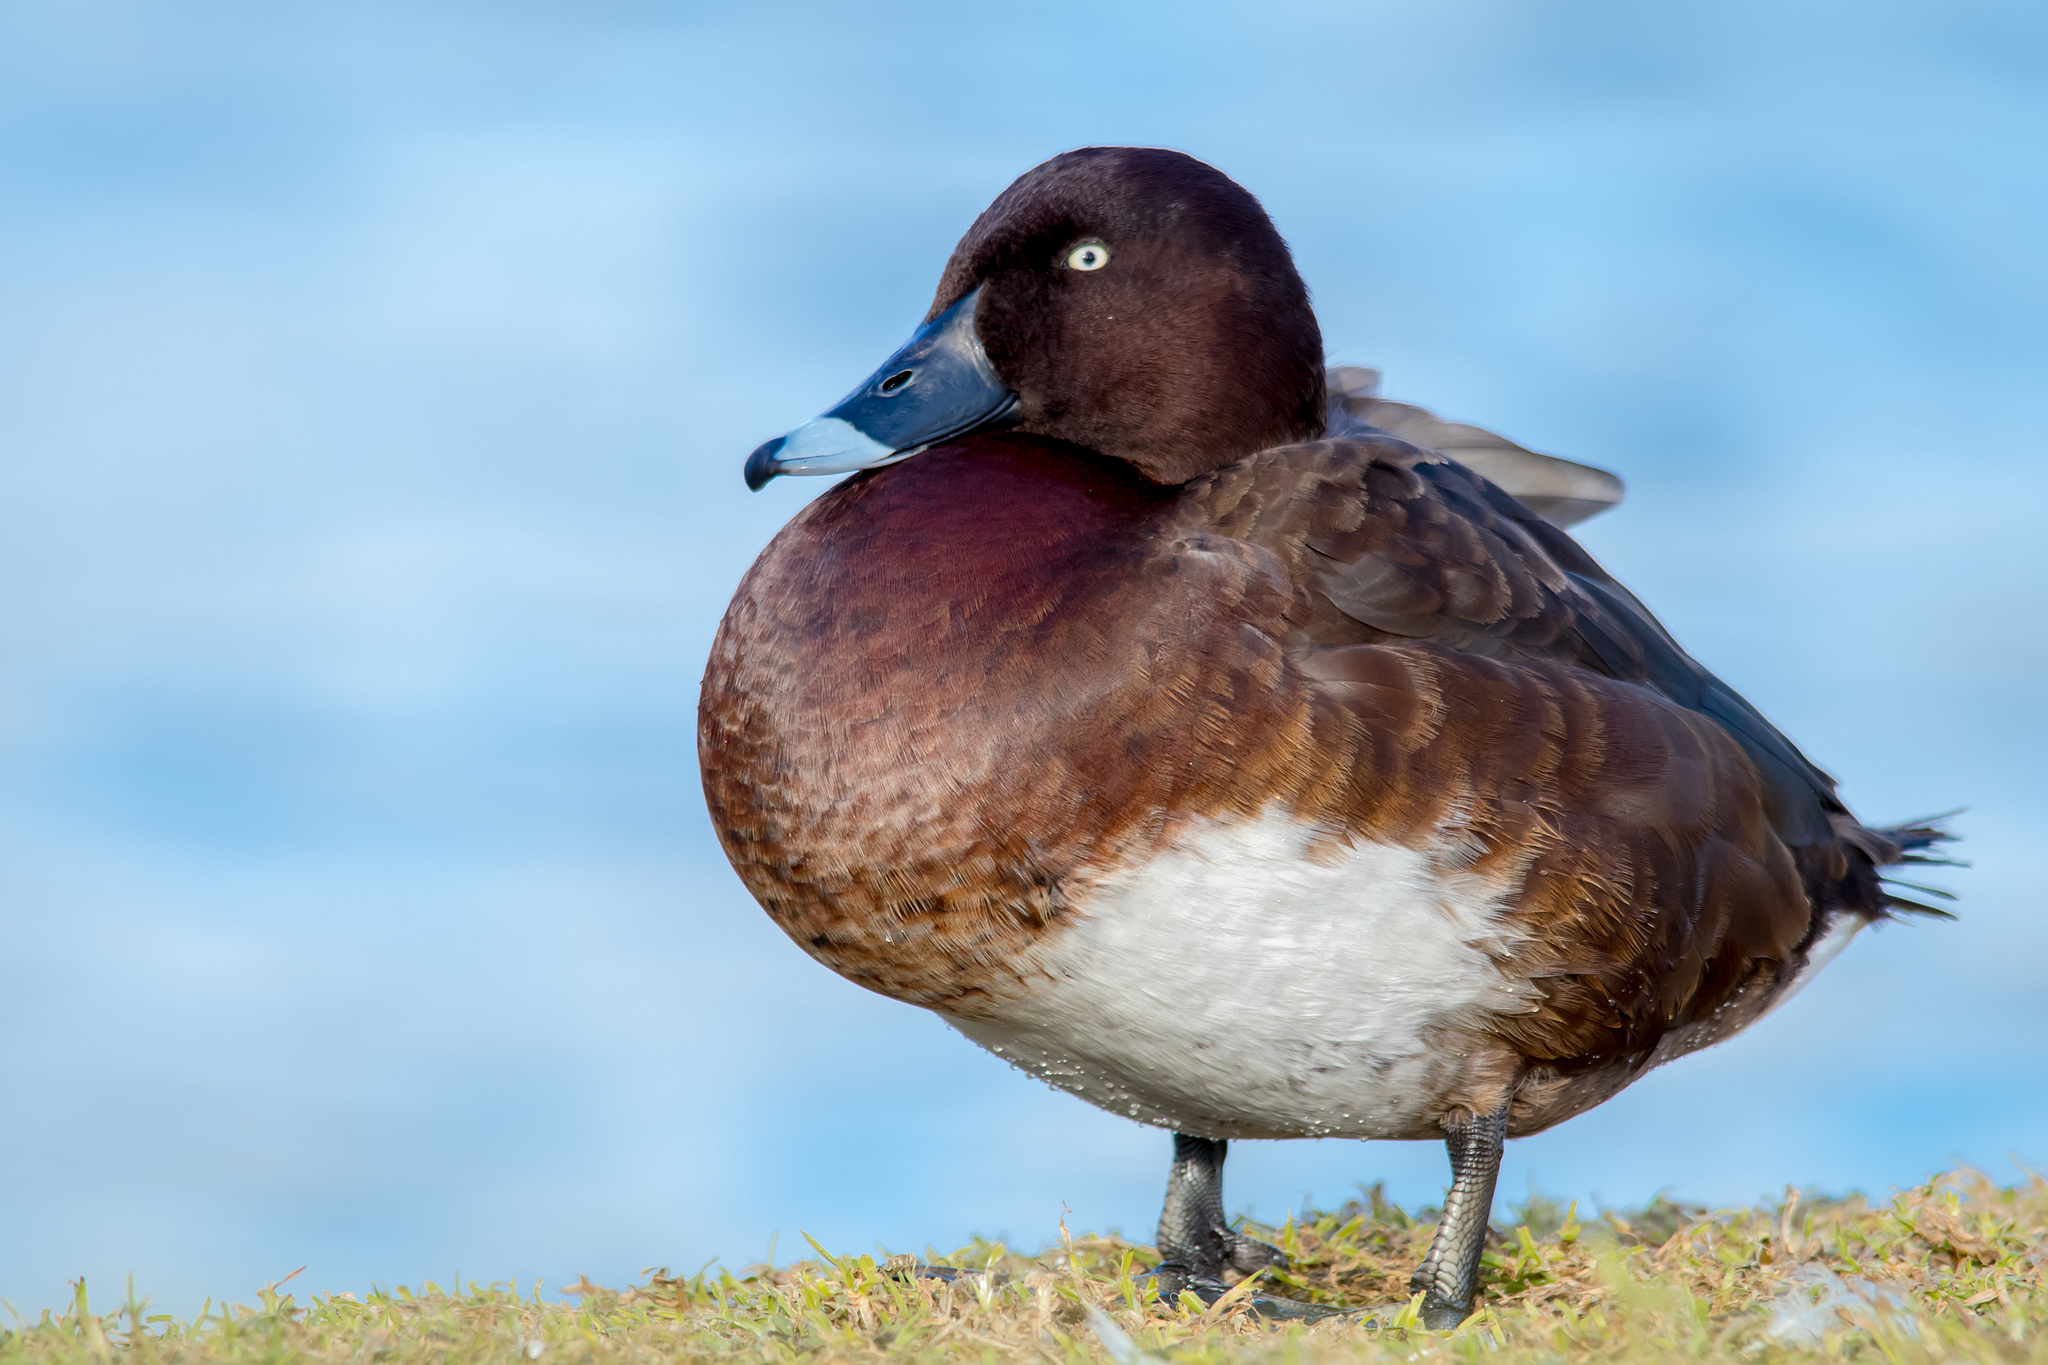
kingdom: Animalia
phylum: Chordata
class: Aves
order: Anseriformes
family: Anatidae
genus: Aythya
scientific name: Aythya australis
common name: Hardhead
